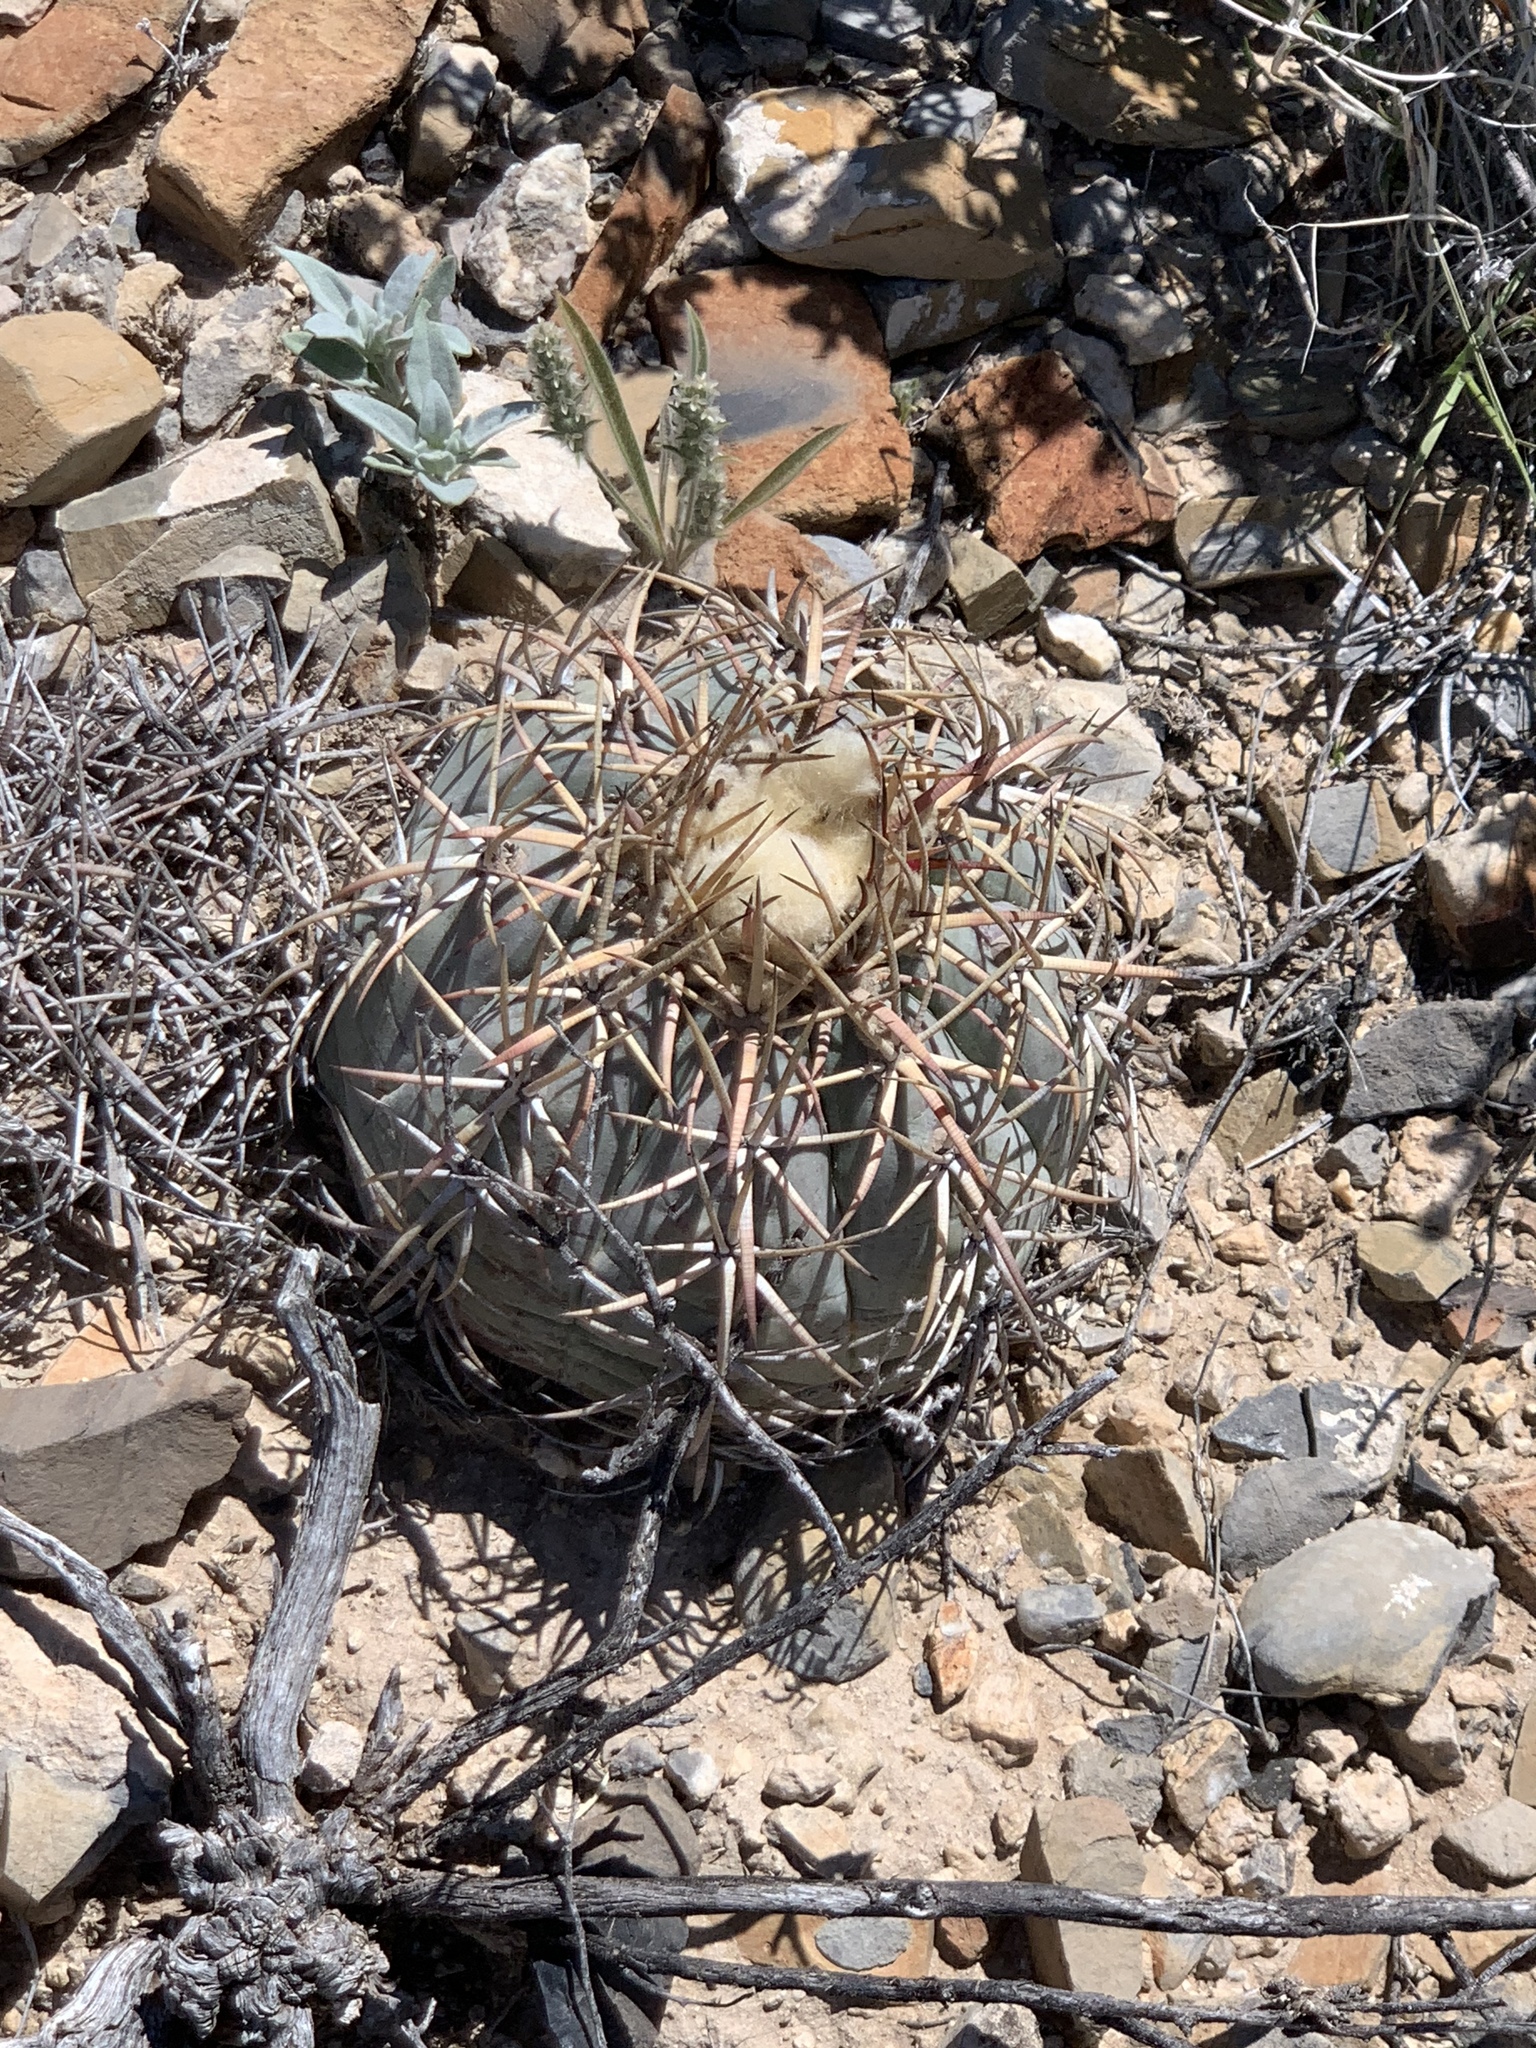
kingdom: Plantae
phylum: Tracheophyta
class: Magnoliopsida
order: Caryophyllales
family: Cactaceae
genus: Echinocactus
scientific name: Echinocactus horizonthalonius
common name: Devilshead
